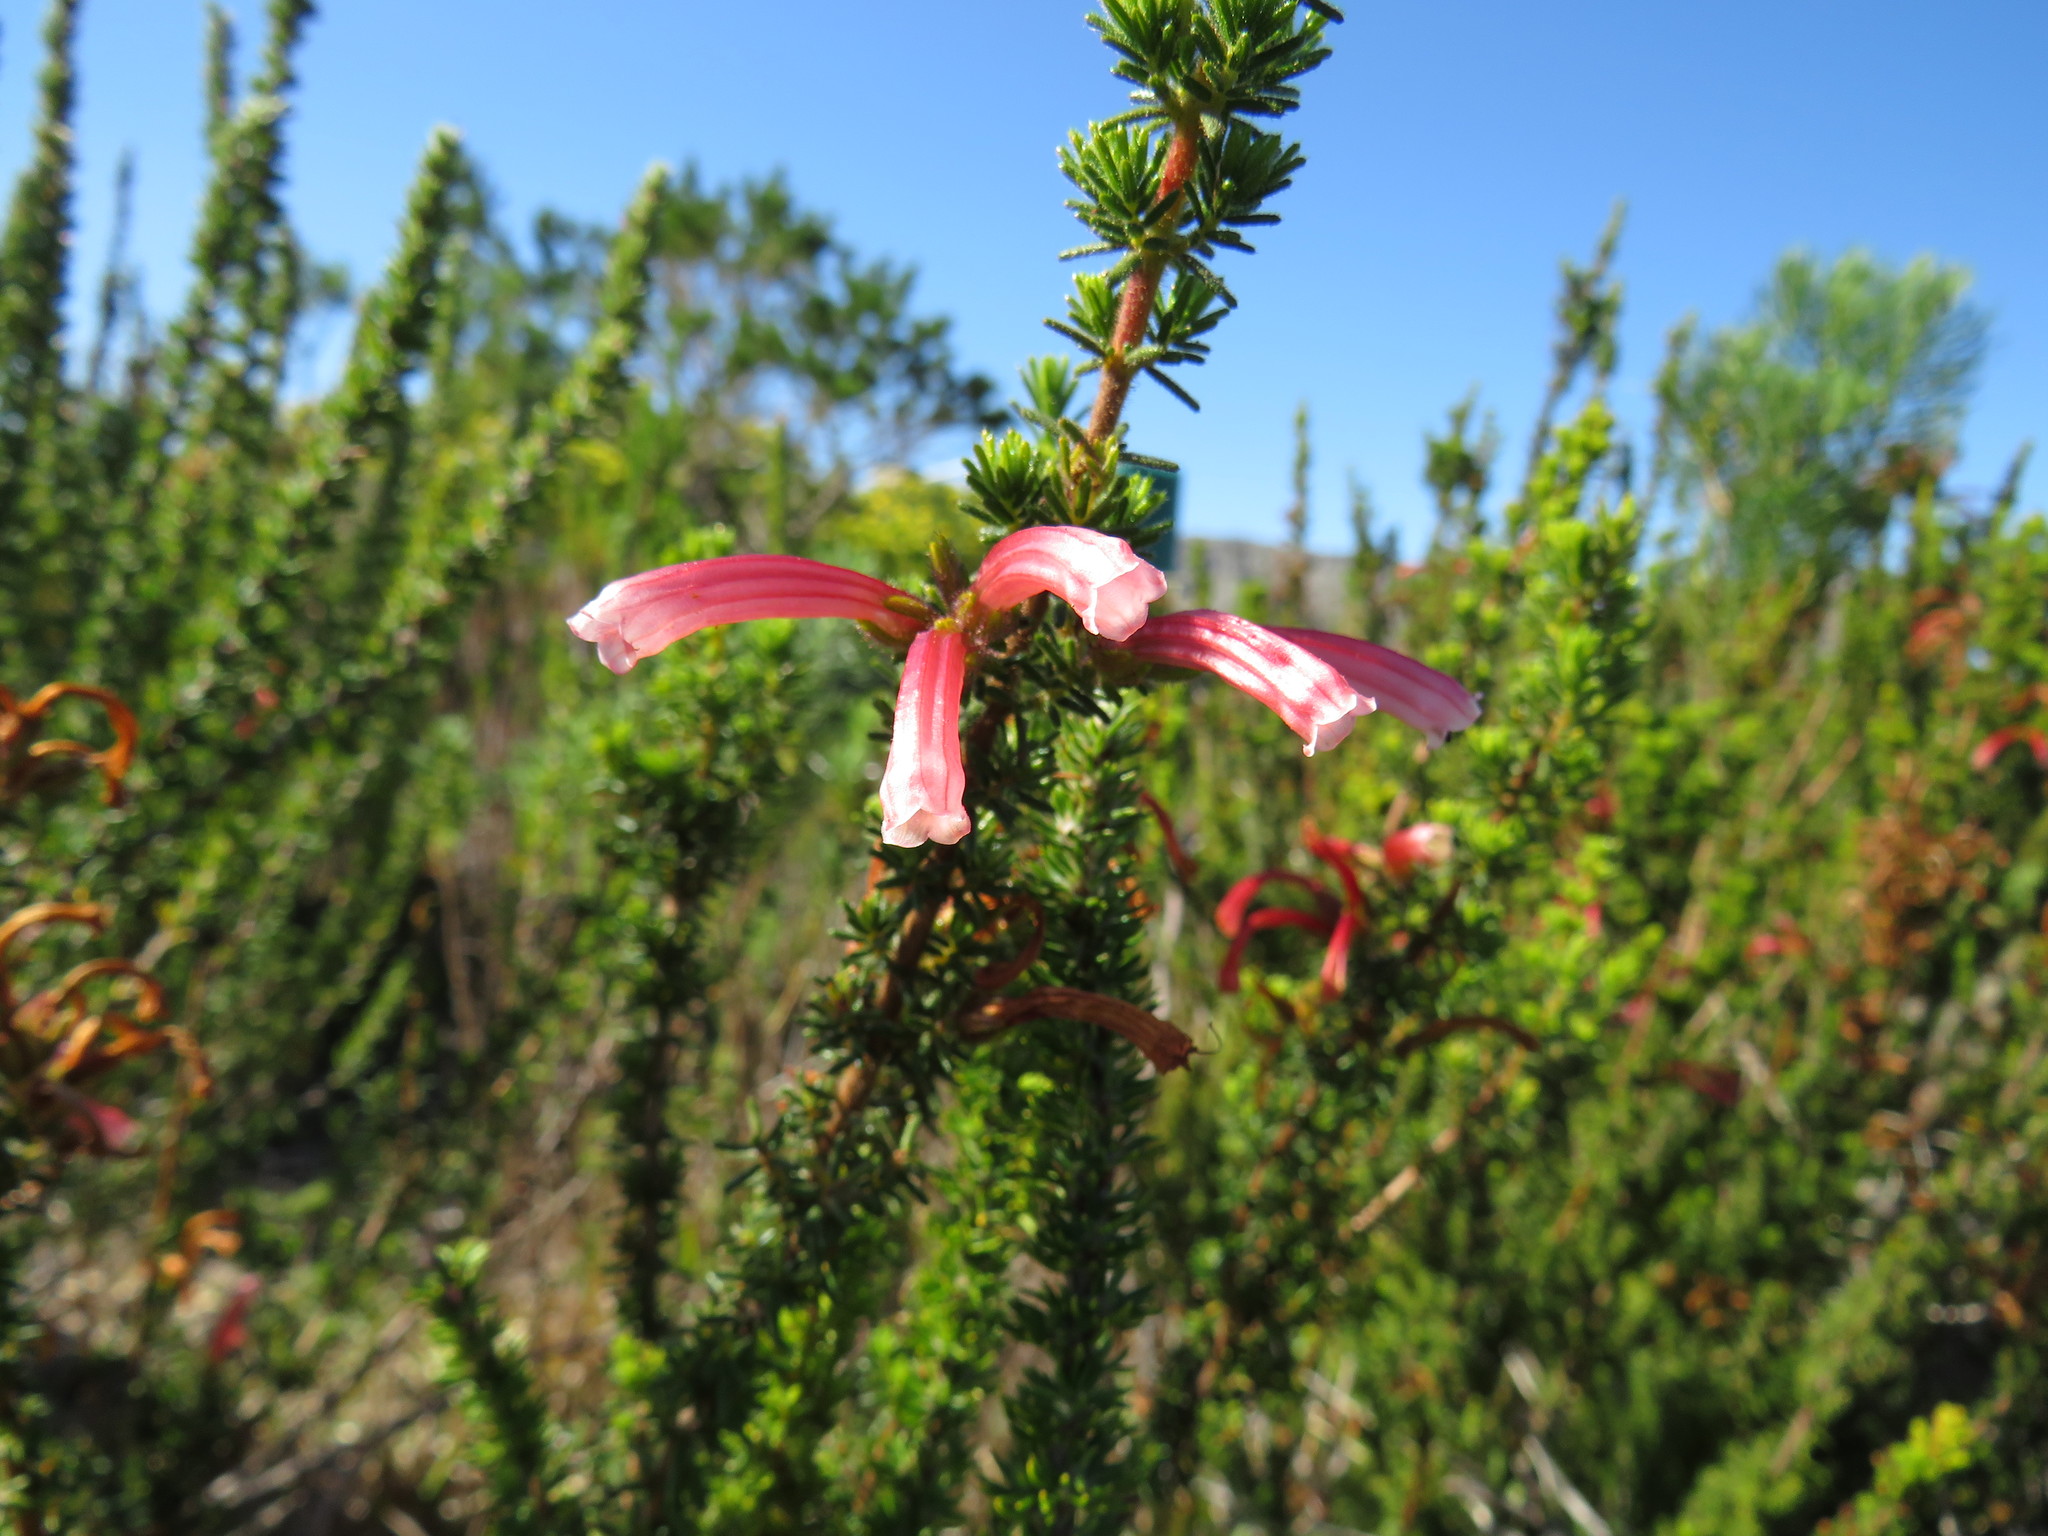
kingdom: Plantae
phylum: Tracheophyta
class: Magnoliopsida
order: Ericales
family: Ericaceae
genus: Erica
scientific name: Erica glandulosa
